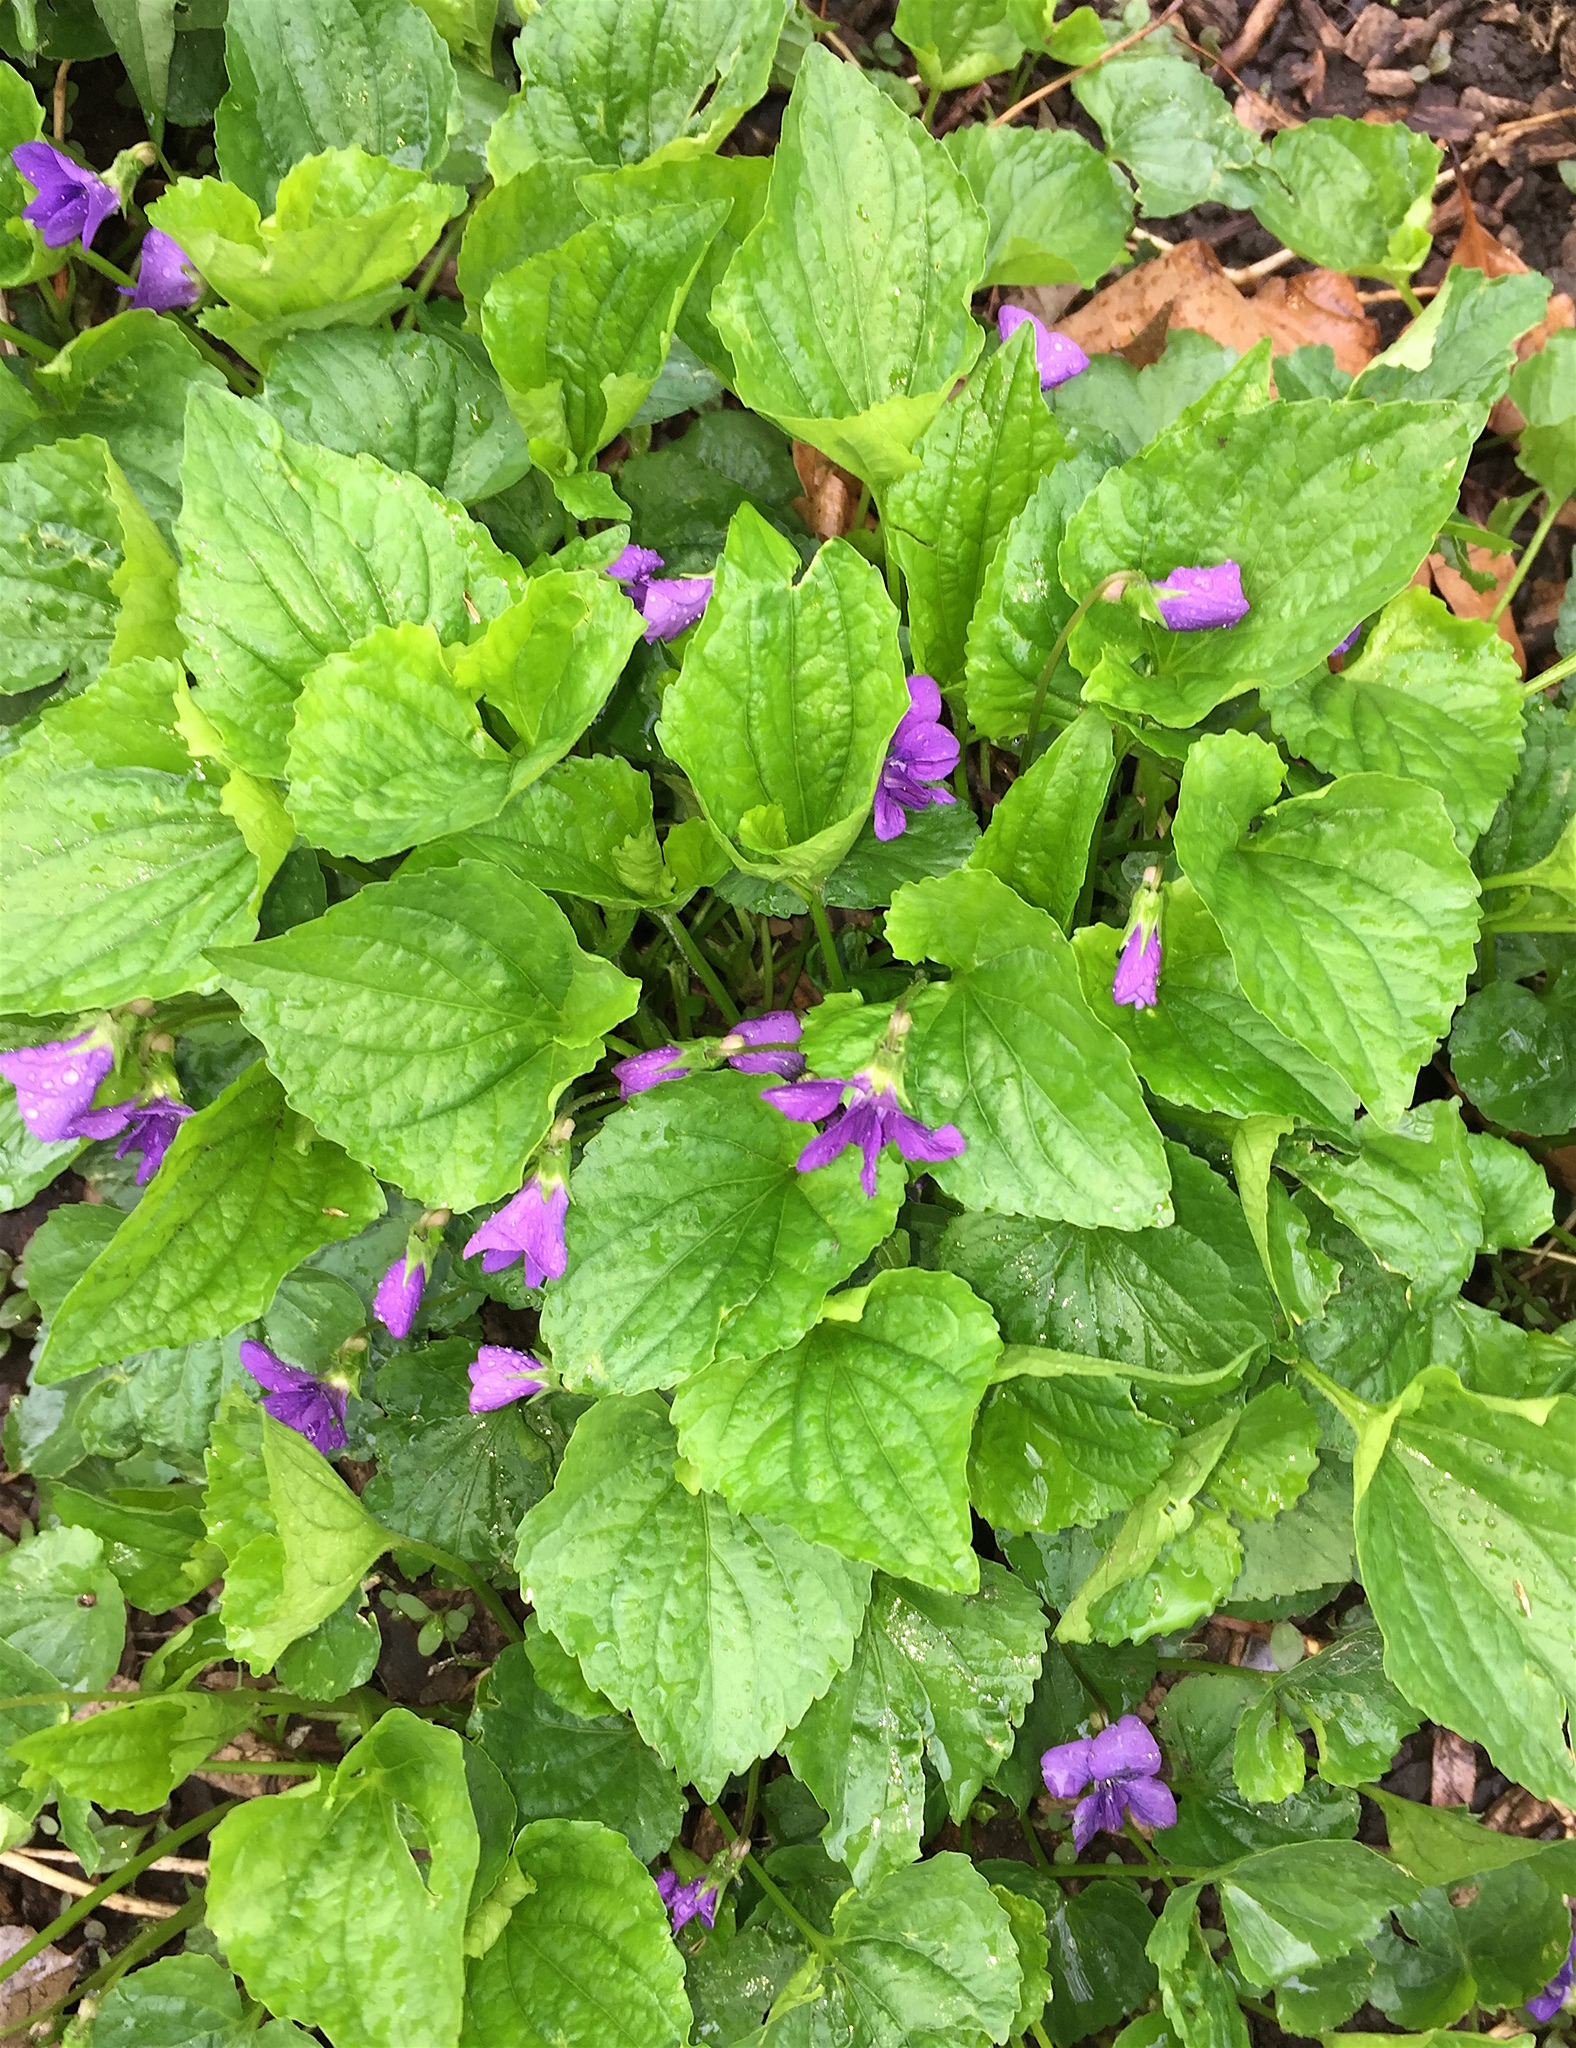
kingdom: Plantae
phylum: Tracheophyta
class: Magnoliopsida
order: Malpighiales
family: Violaceae
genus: Viola
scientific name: Viola sororia
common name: Dooryard violet
